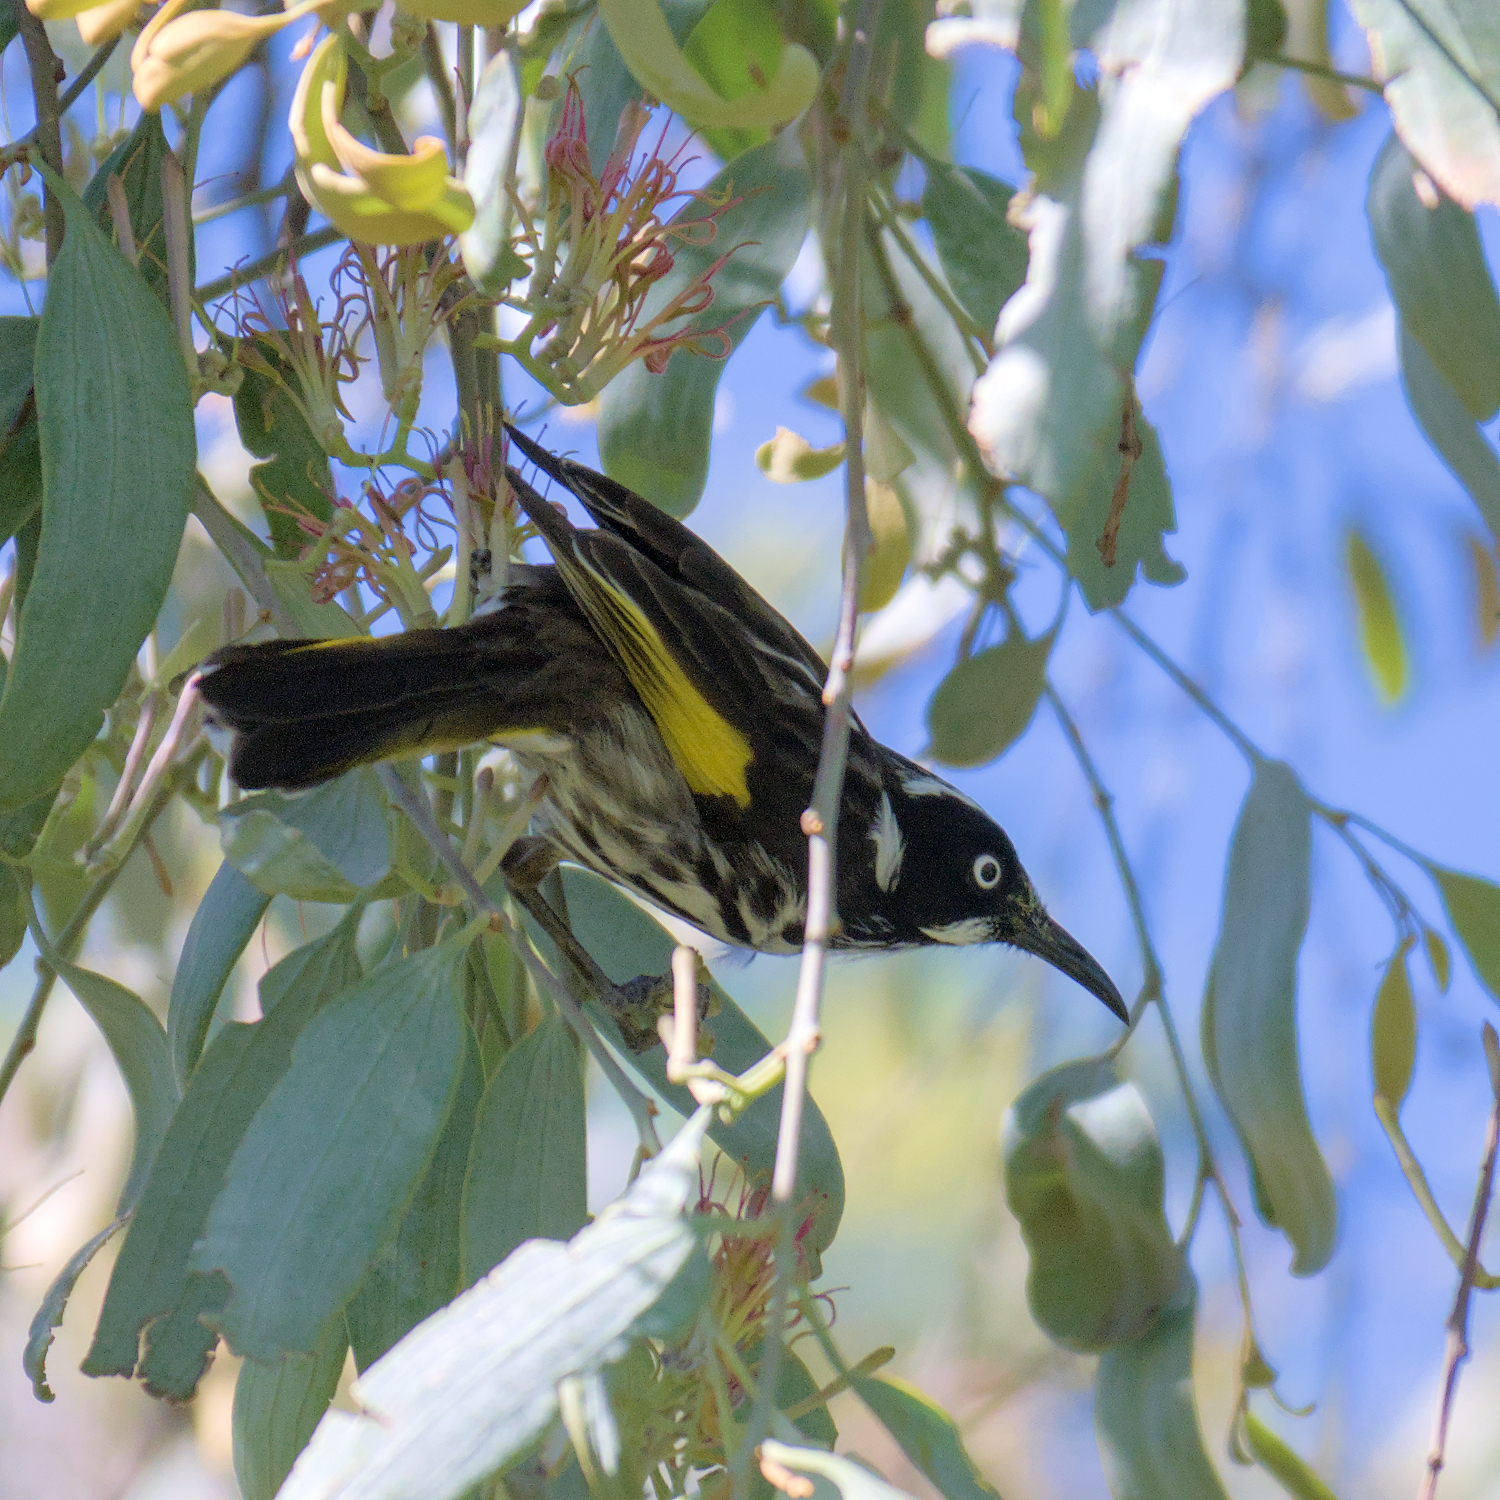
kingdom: Animalia
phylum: Chordata
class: Aves
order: Passeriformes
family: Meliphagidae
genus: Phylidonyris
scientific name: Phylidonyris novaehollandiae
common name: New holland honeyeater
